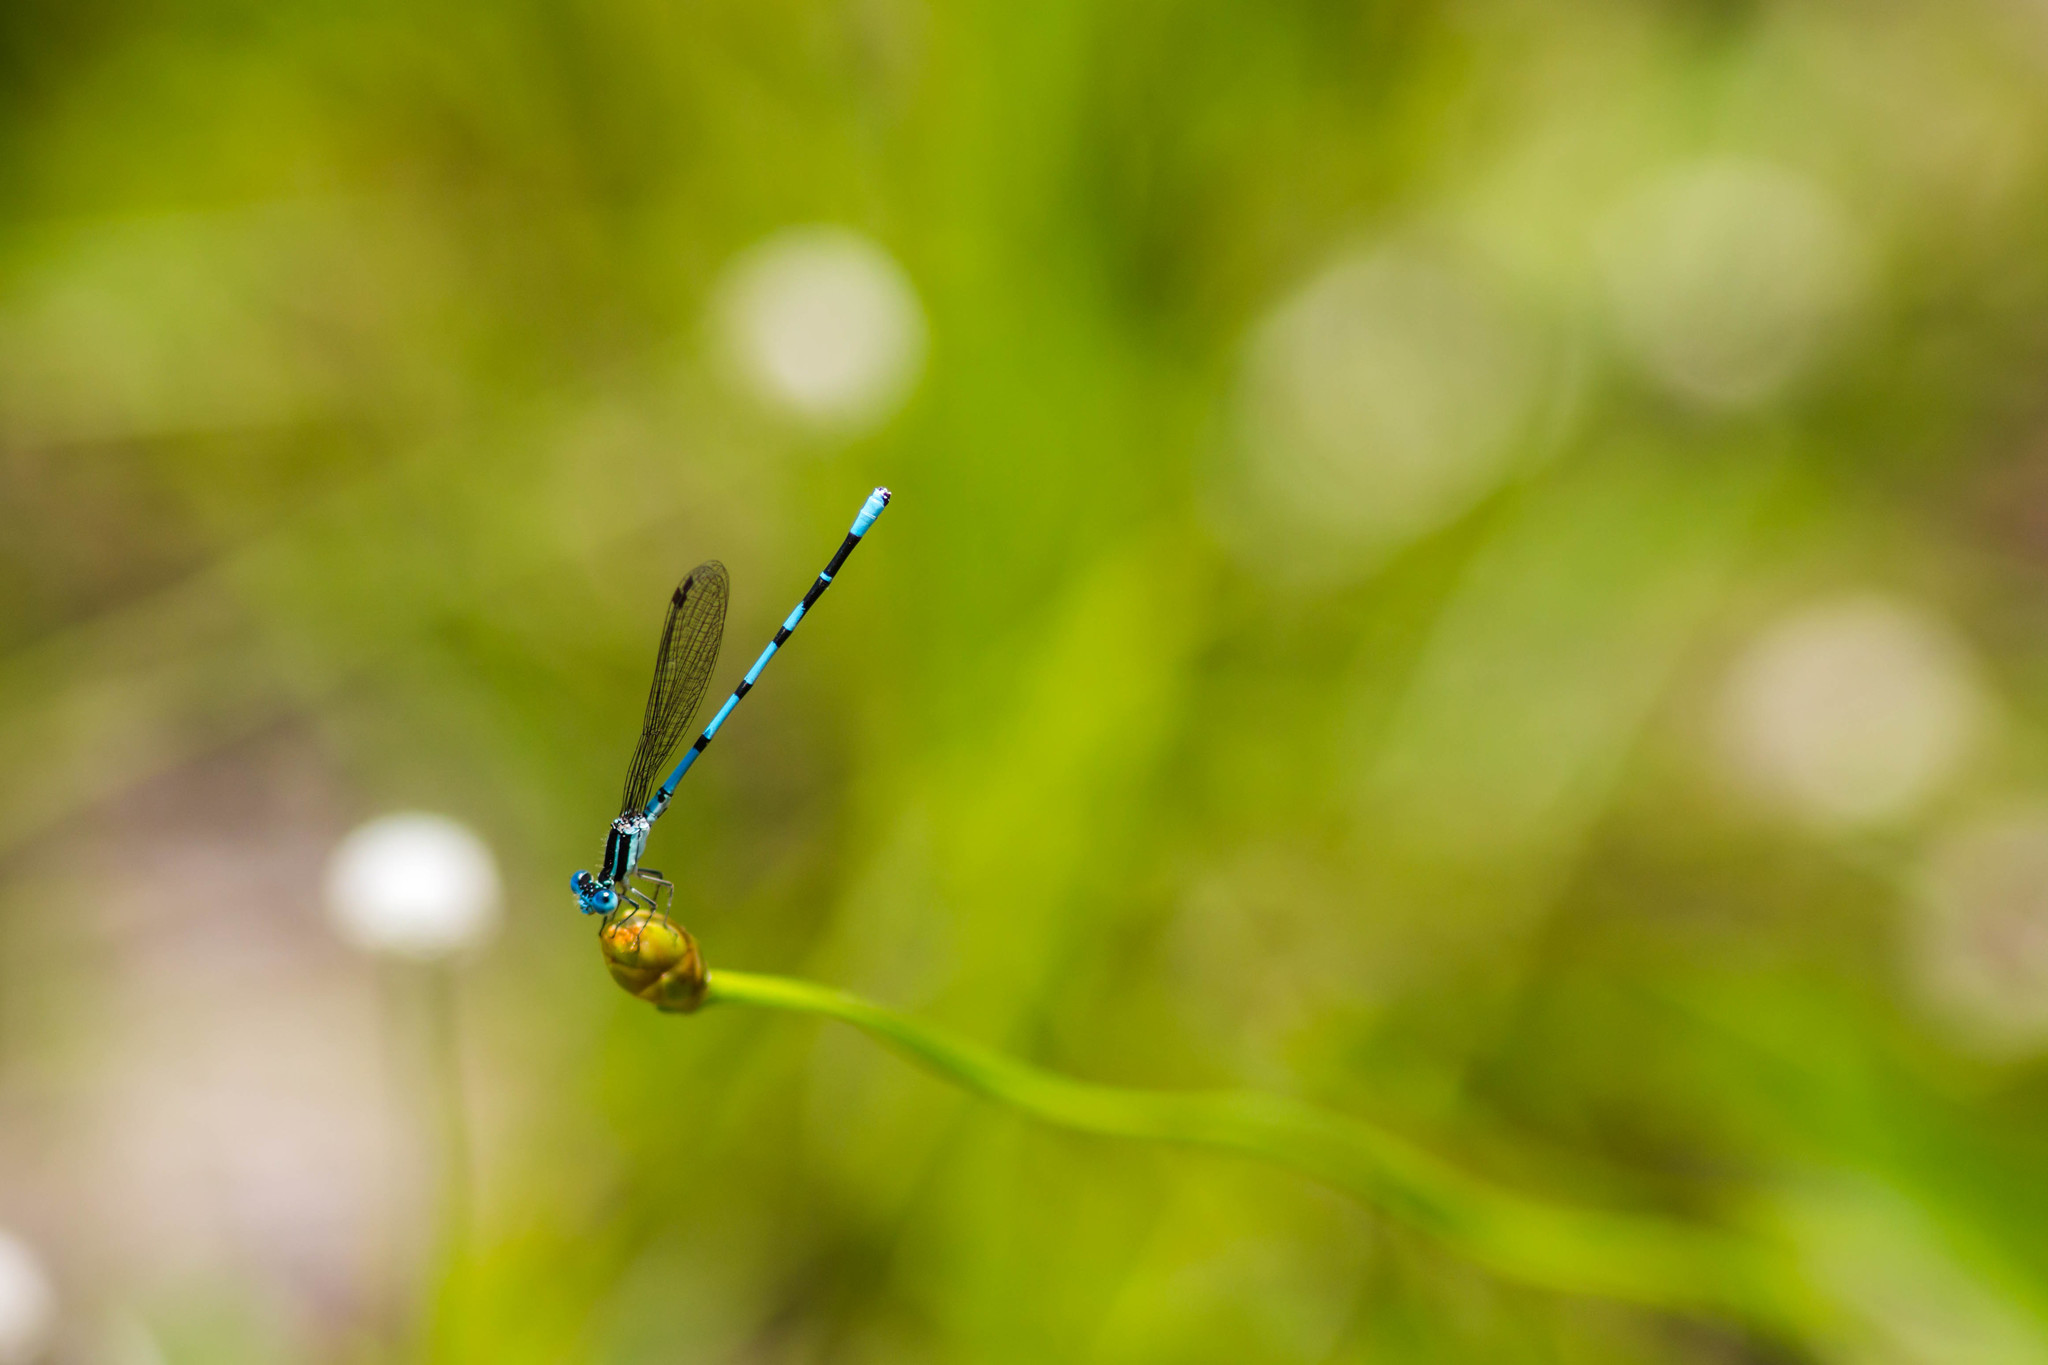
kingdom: Animalia
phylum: Arthropoda
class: Insecta
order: Odonata
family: Coenagrionidae
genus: Argia
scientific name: Argia bipunctulata
